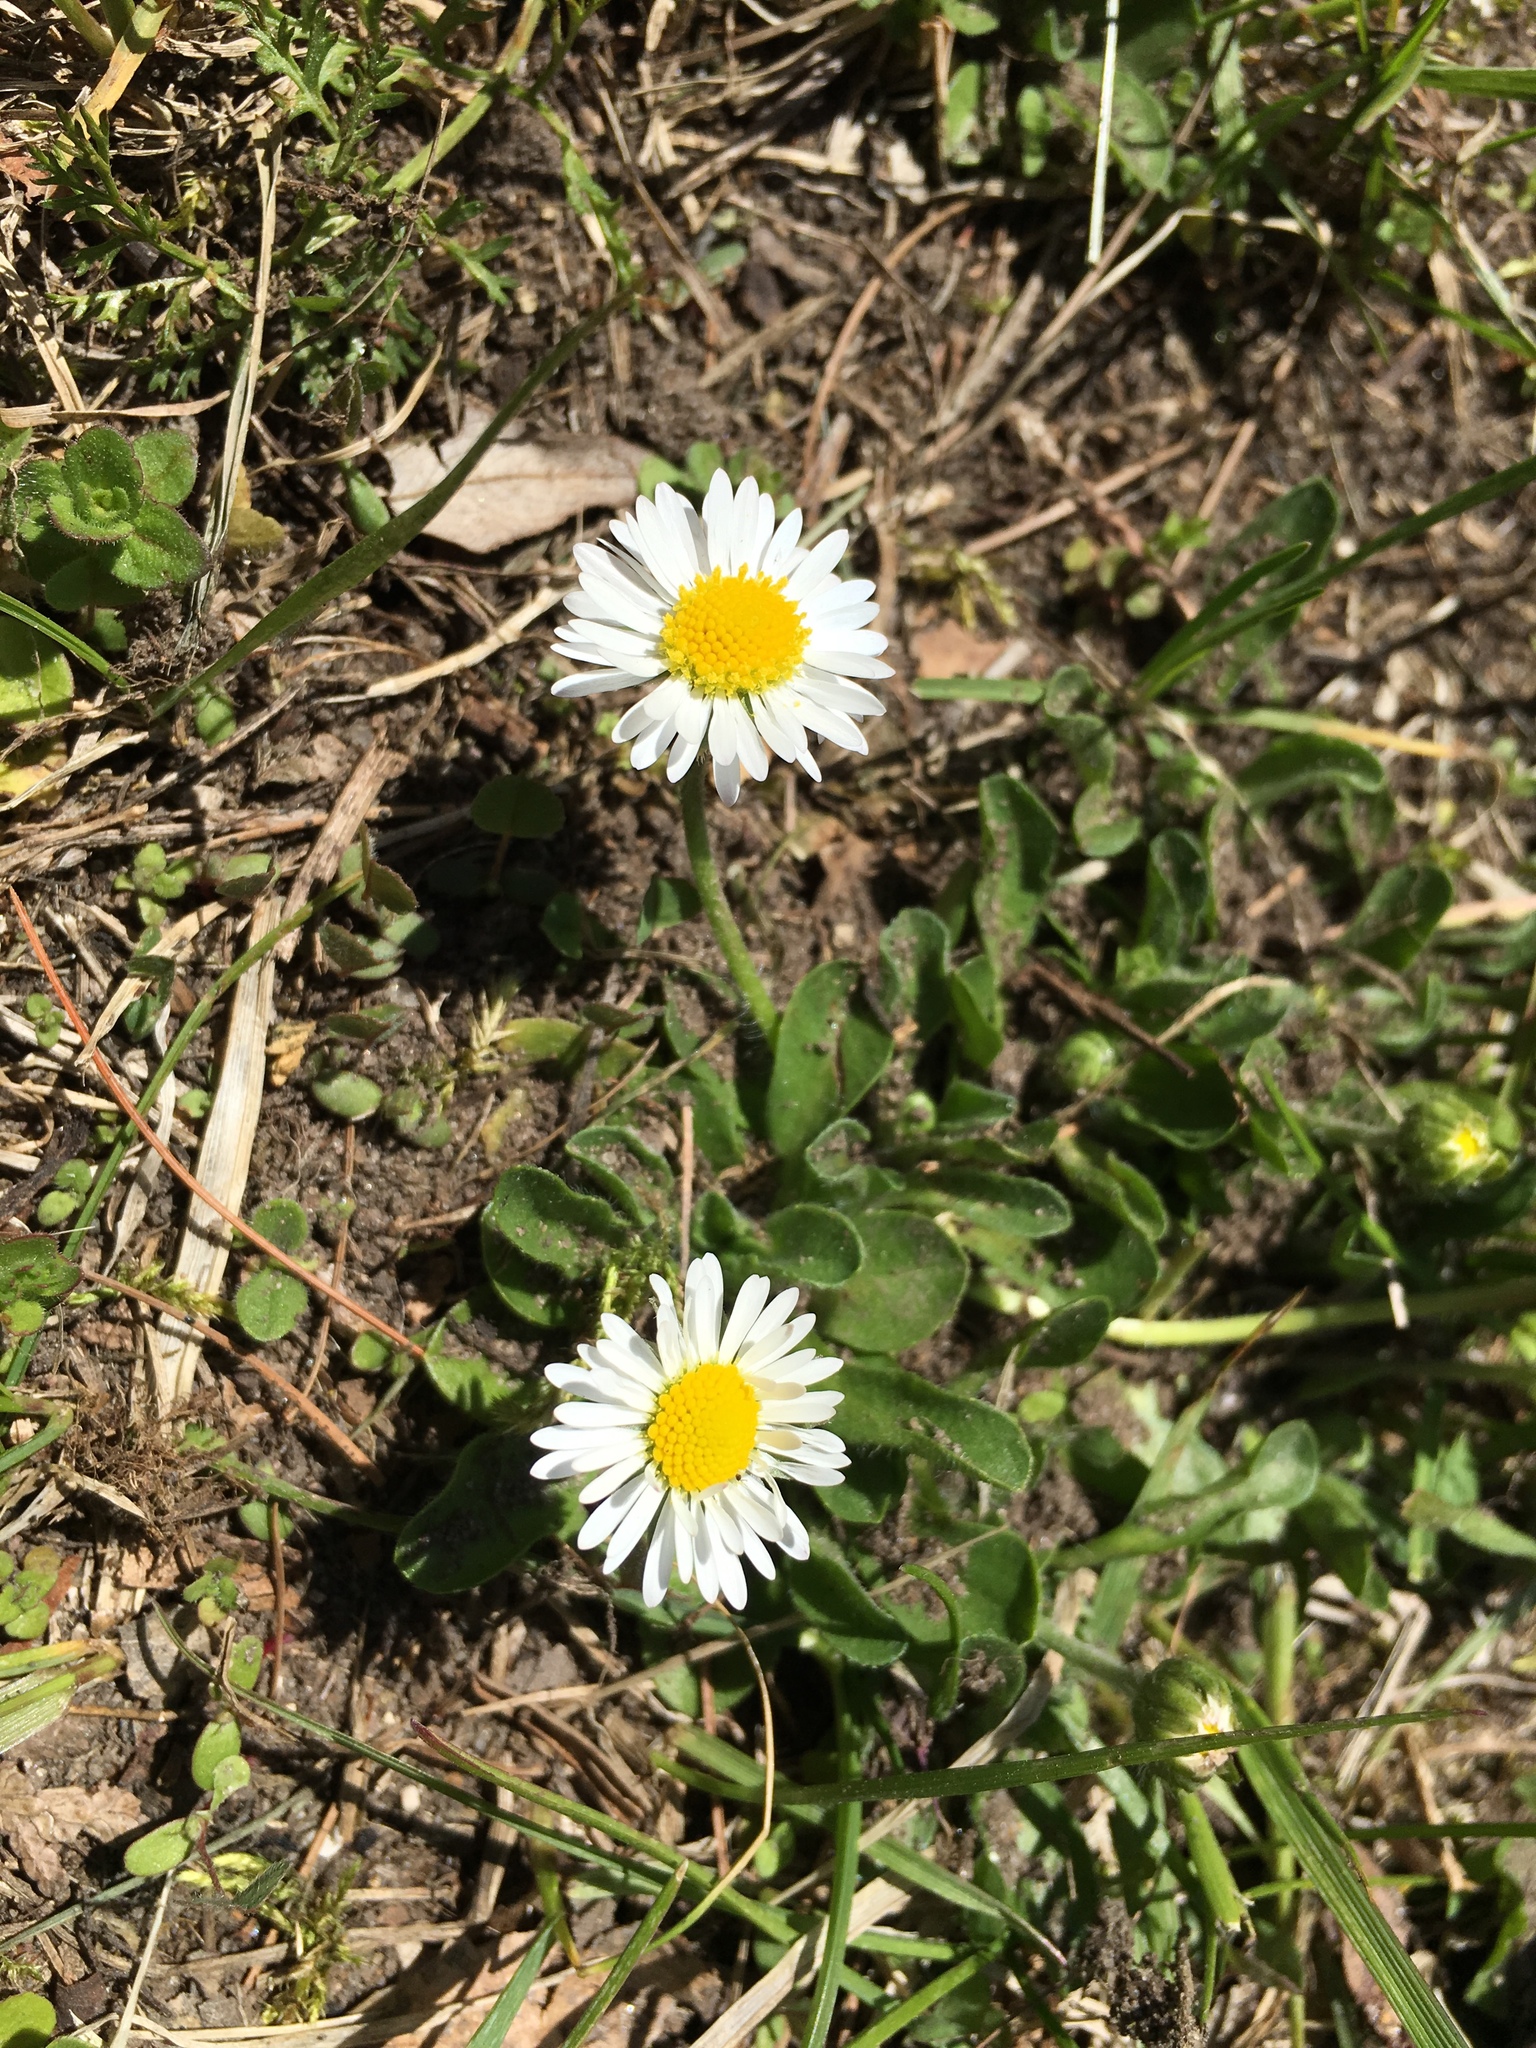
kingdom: Plantae
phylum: Tracheophyta
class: Magnoliopsida
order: Asterales
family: Asteraceae
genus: Bellis
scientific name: Bellis perennis
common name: Lawndaisy
